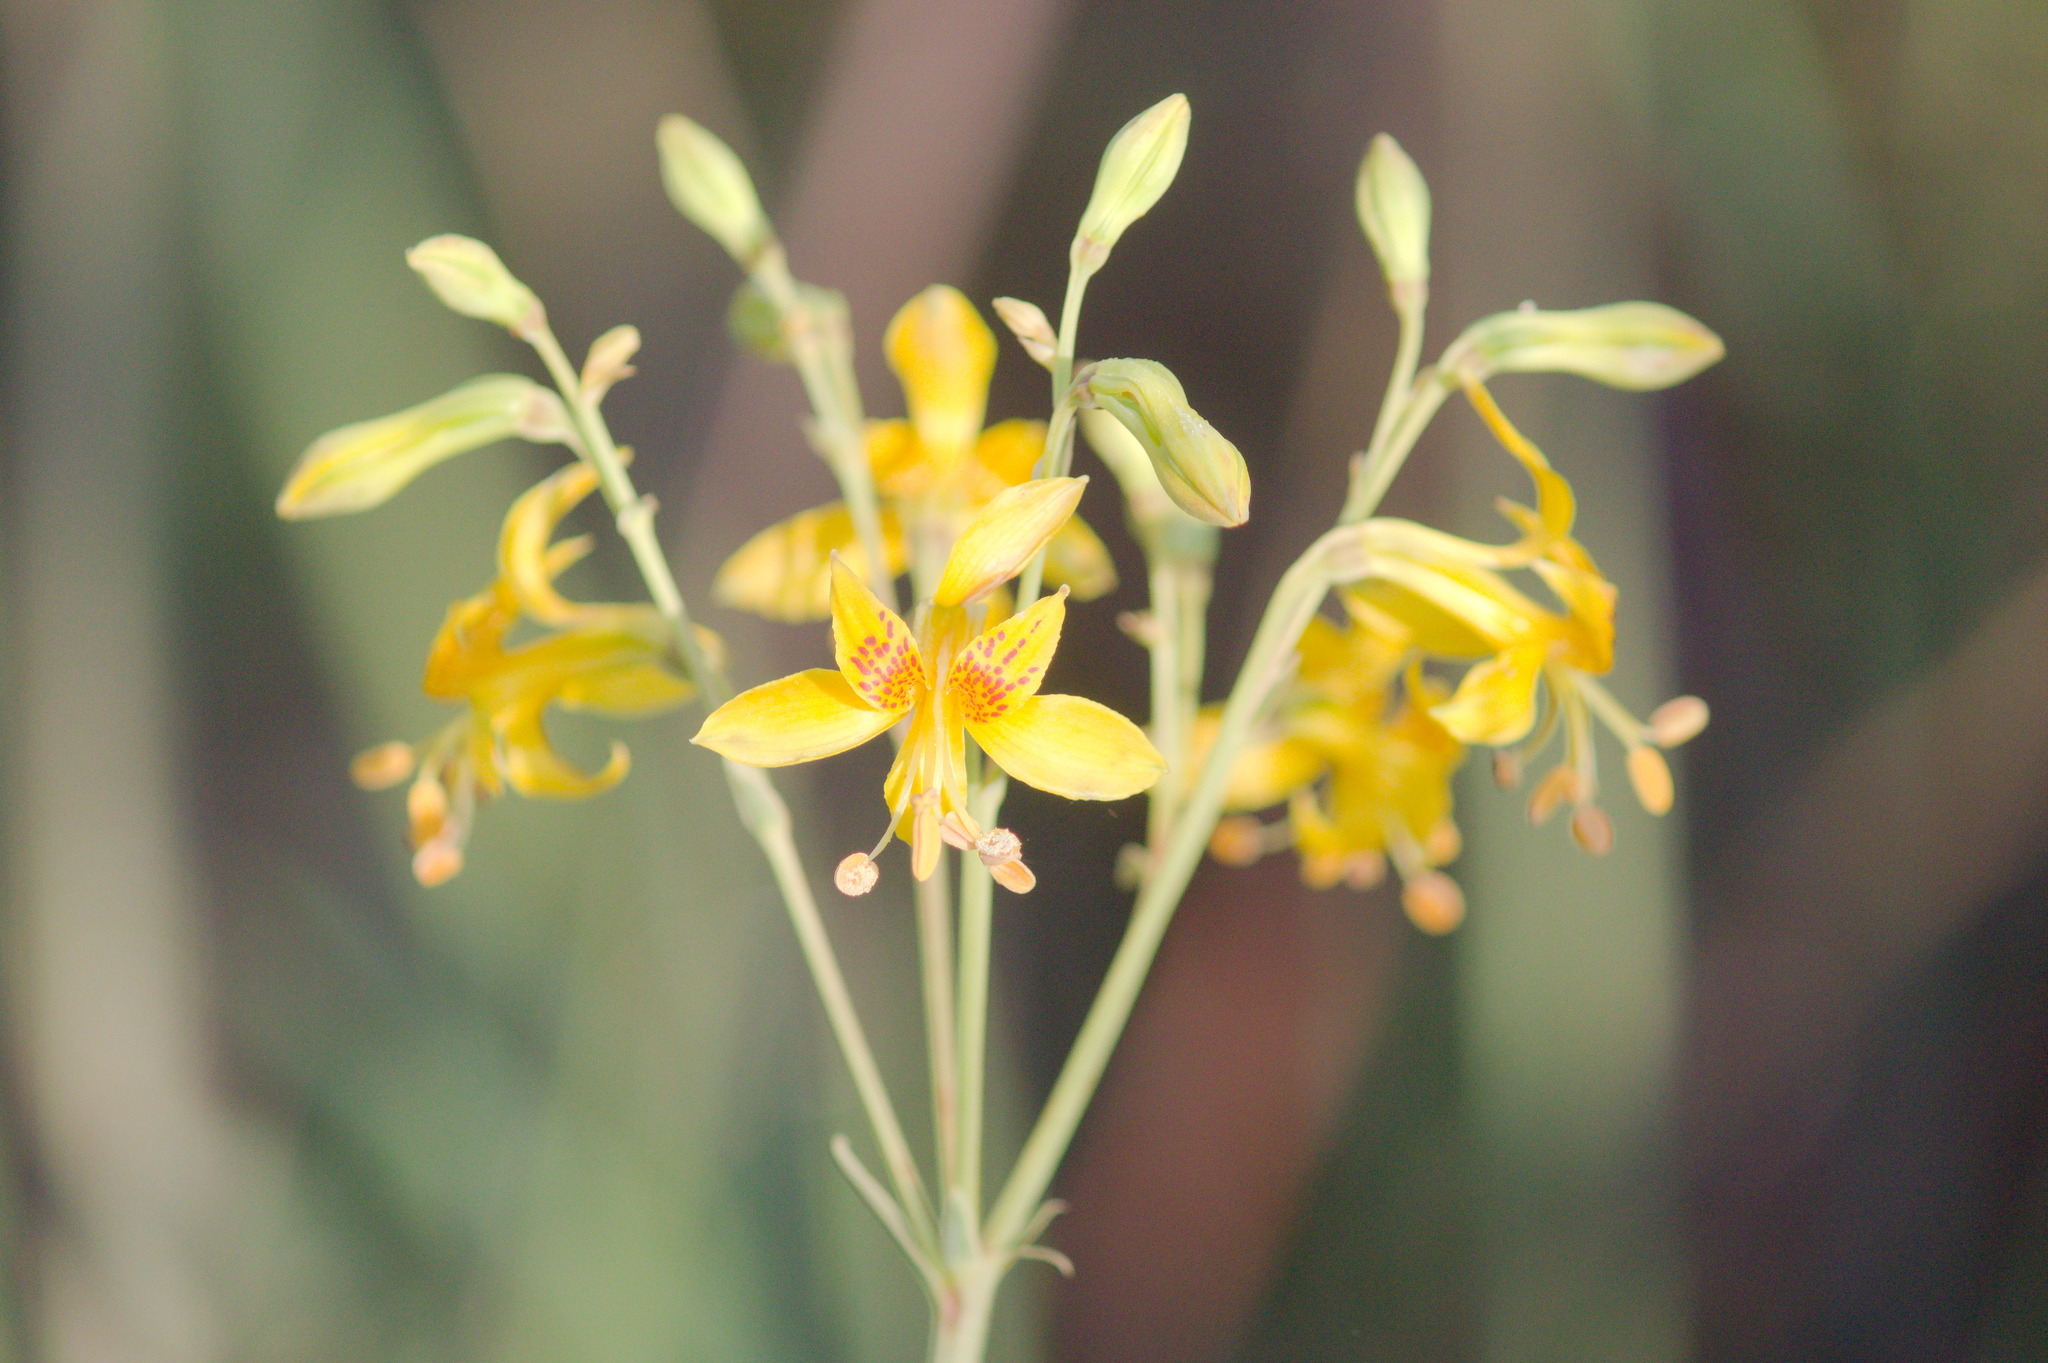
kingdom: Plantae
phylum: Tracheophyta
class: Liliopsida
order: Liliales
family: Alstroemeriaceae
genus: Alstroemeria
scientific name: Alstroemeria apertiflora
